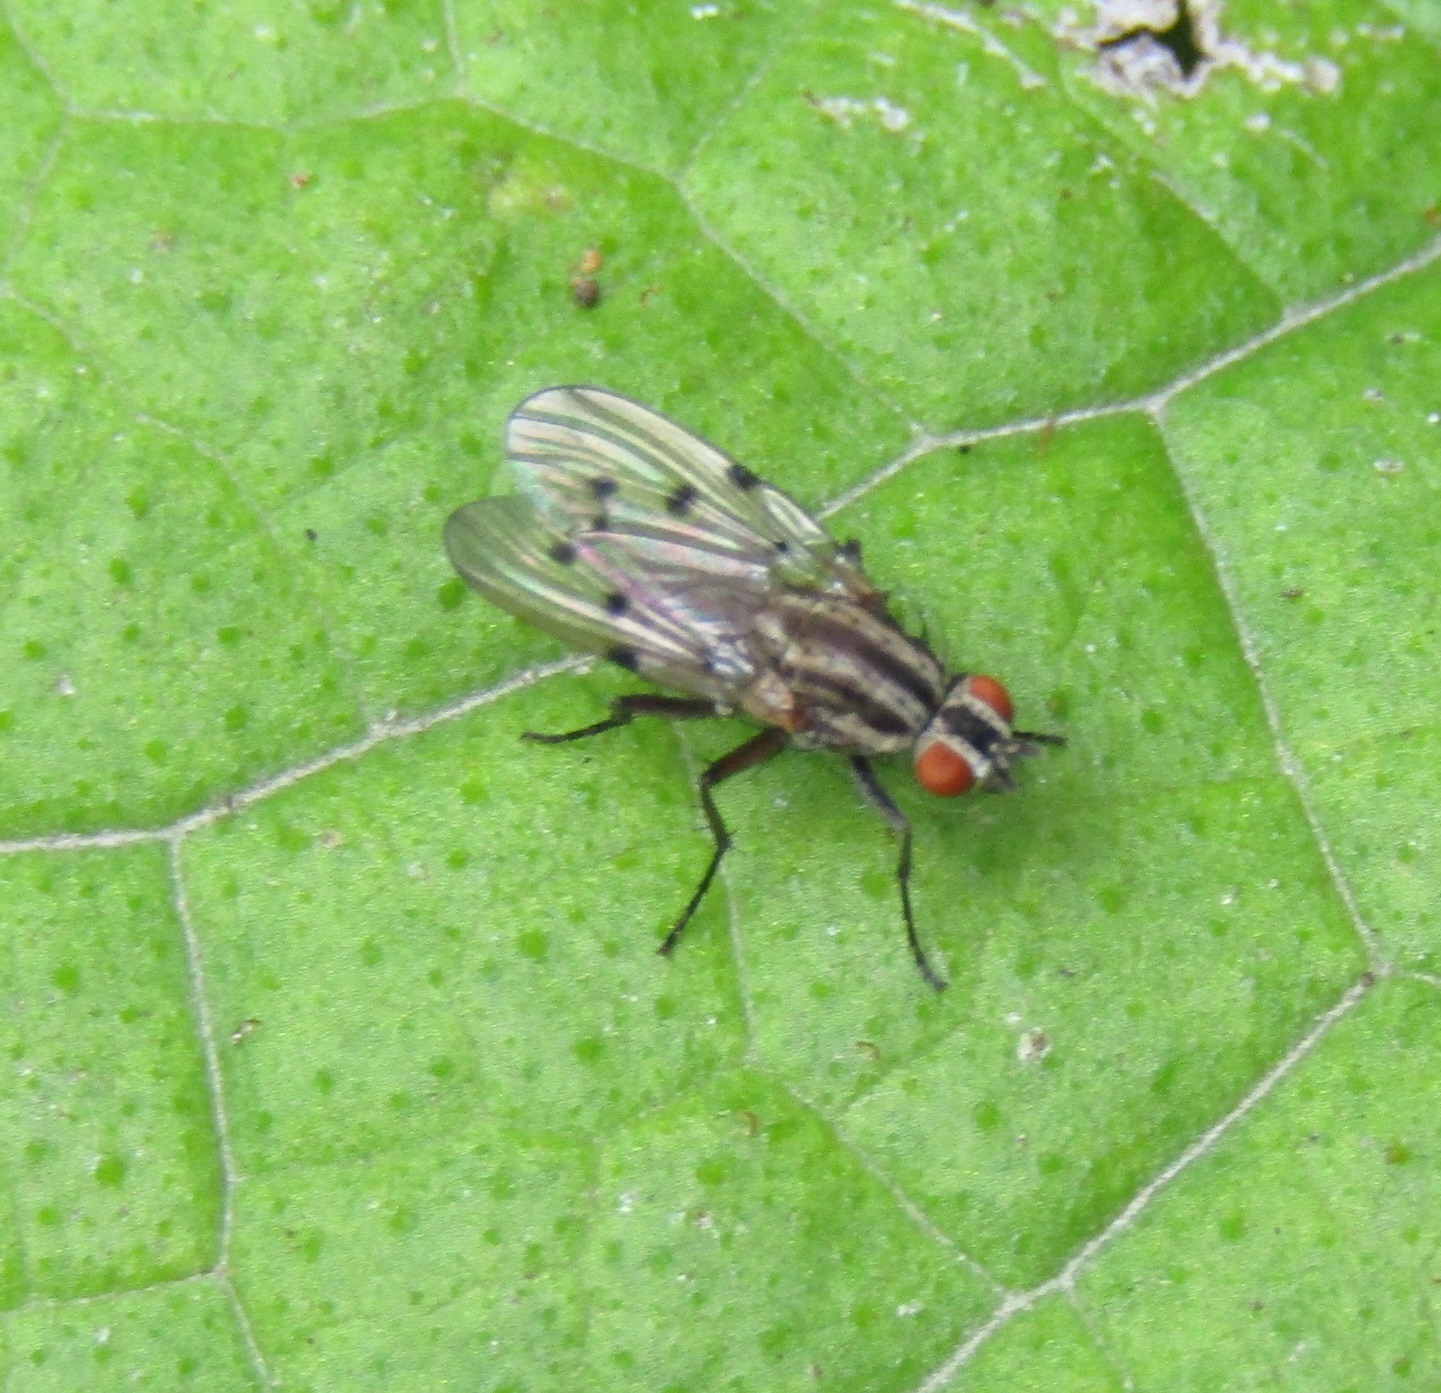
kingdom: Animalia
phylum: Arthropoda
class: Insecta
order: Diptera
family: Anthomyiidae
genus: Anthomyia
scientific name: Anthomyia punctipennis
